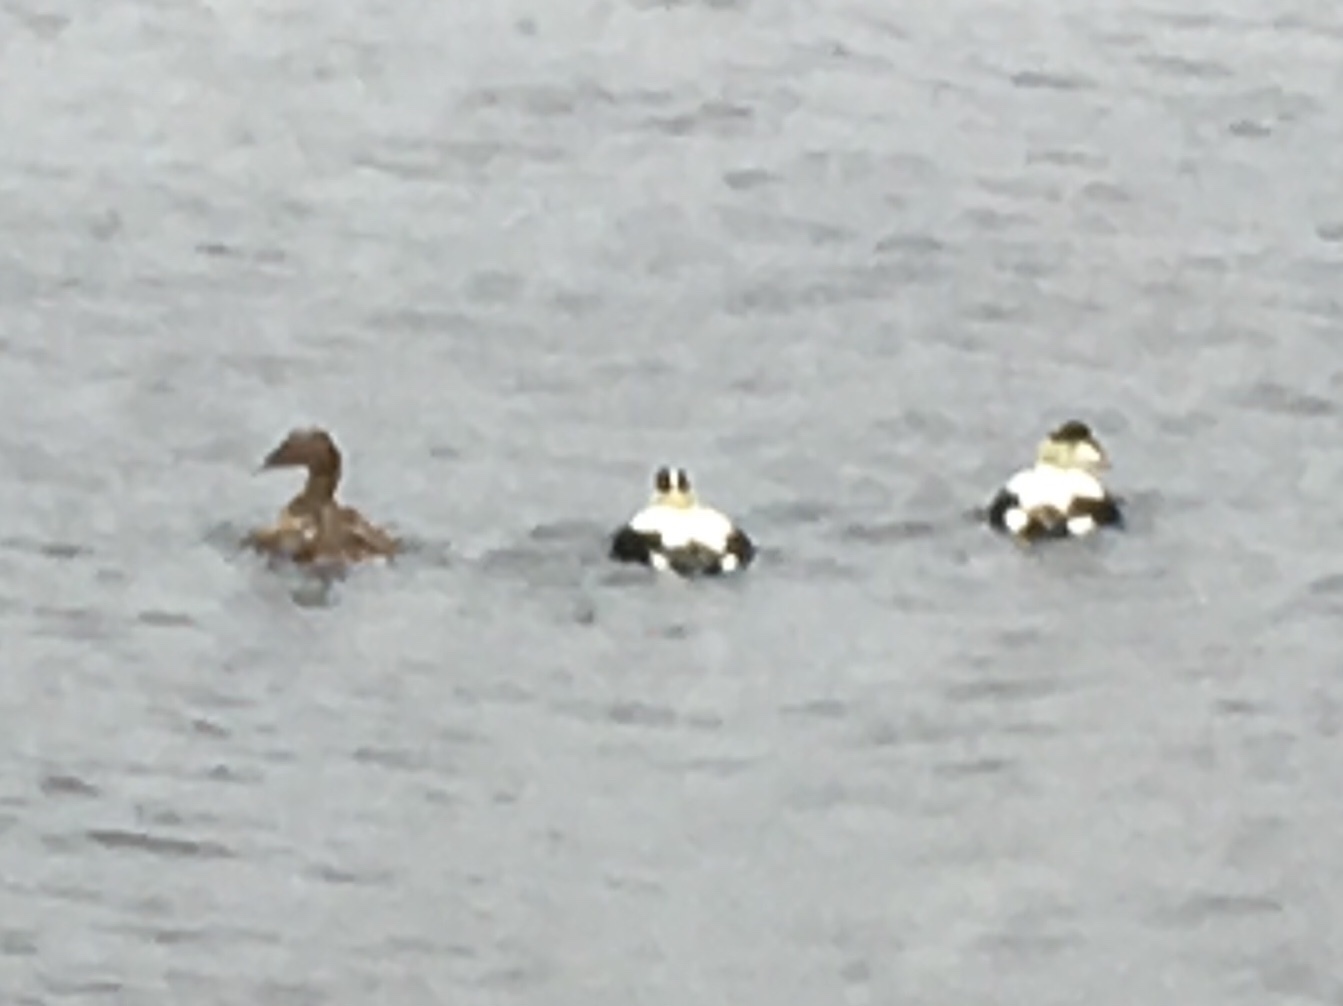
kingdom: Animalia
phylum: Chordata
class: Aves
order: Anseriformes
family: Anatidae
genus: Somateria
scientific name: Somateria mollissima
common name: Common eider
